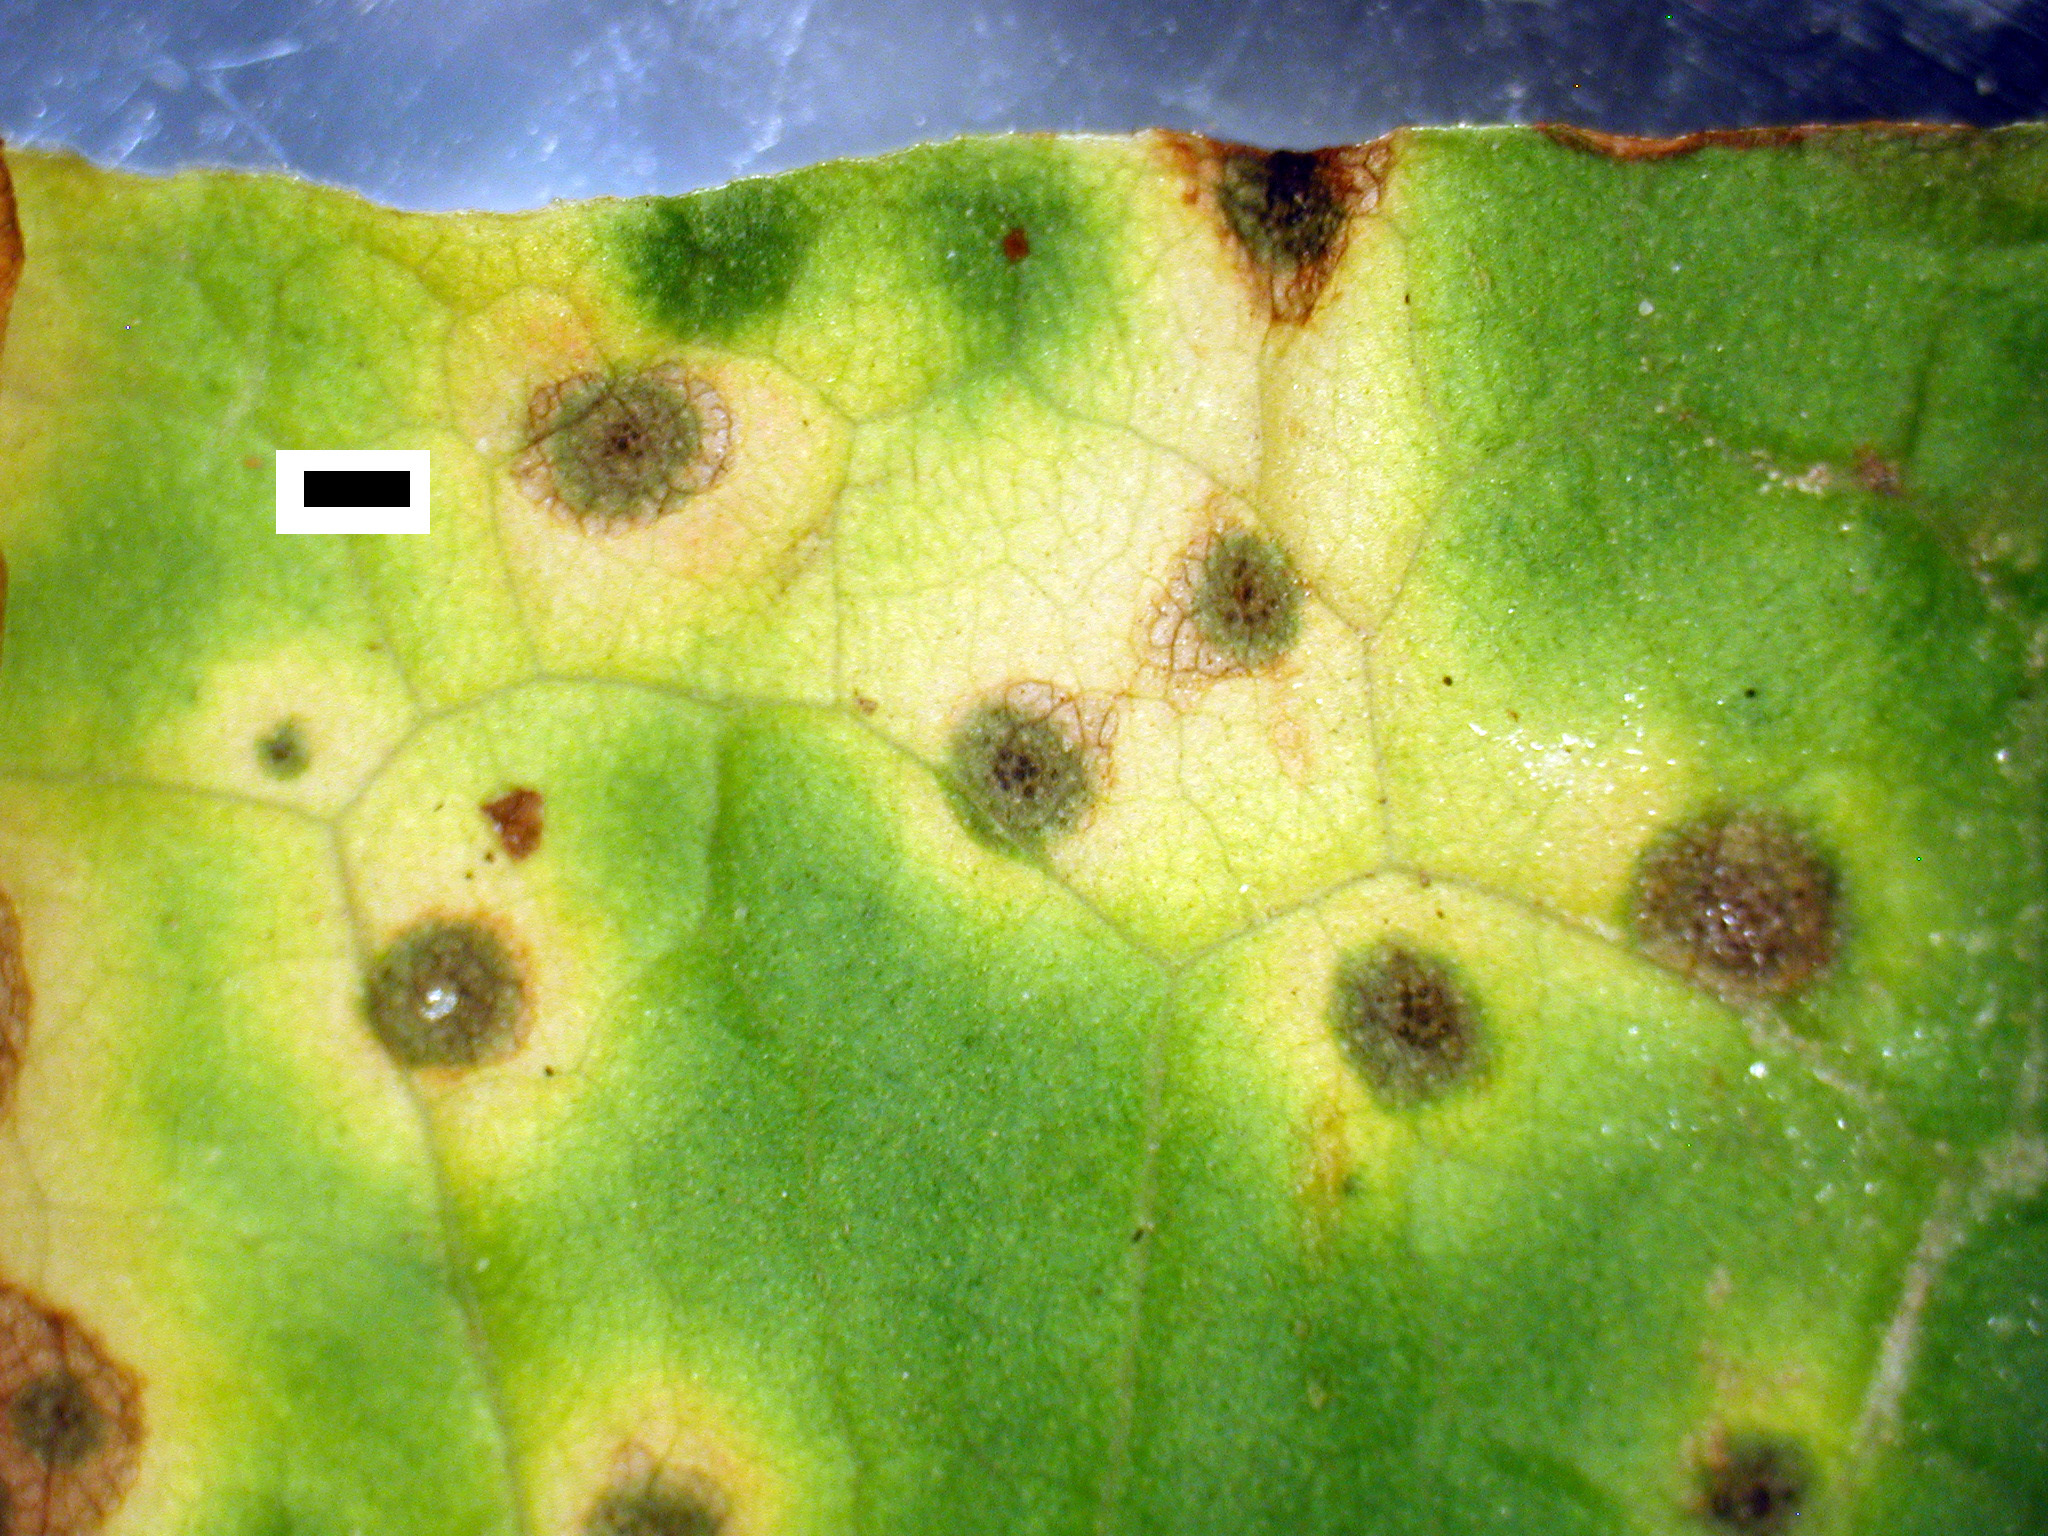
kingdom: Fungi
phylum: Ascomycota
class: Dothideomycetes
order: Venturiales
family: Venturiaceae
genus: Venturia
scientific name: Venturia rumicis
